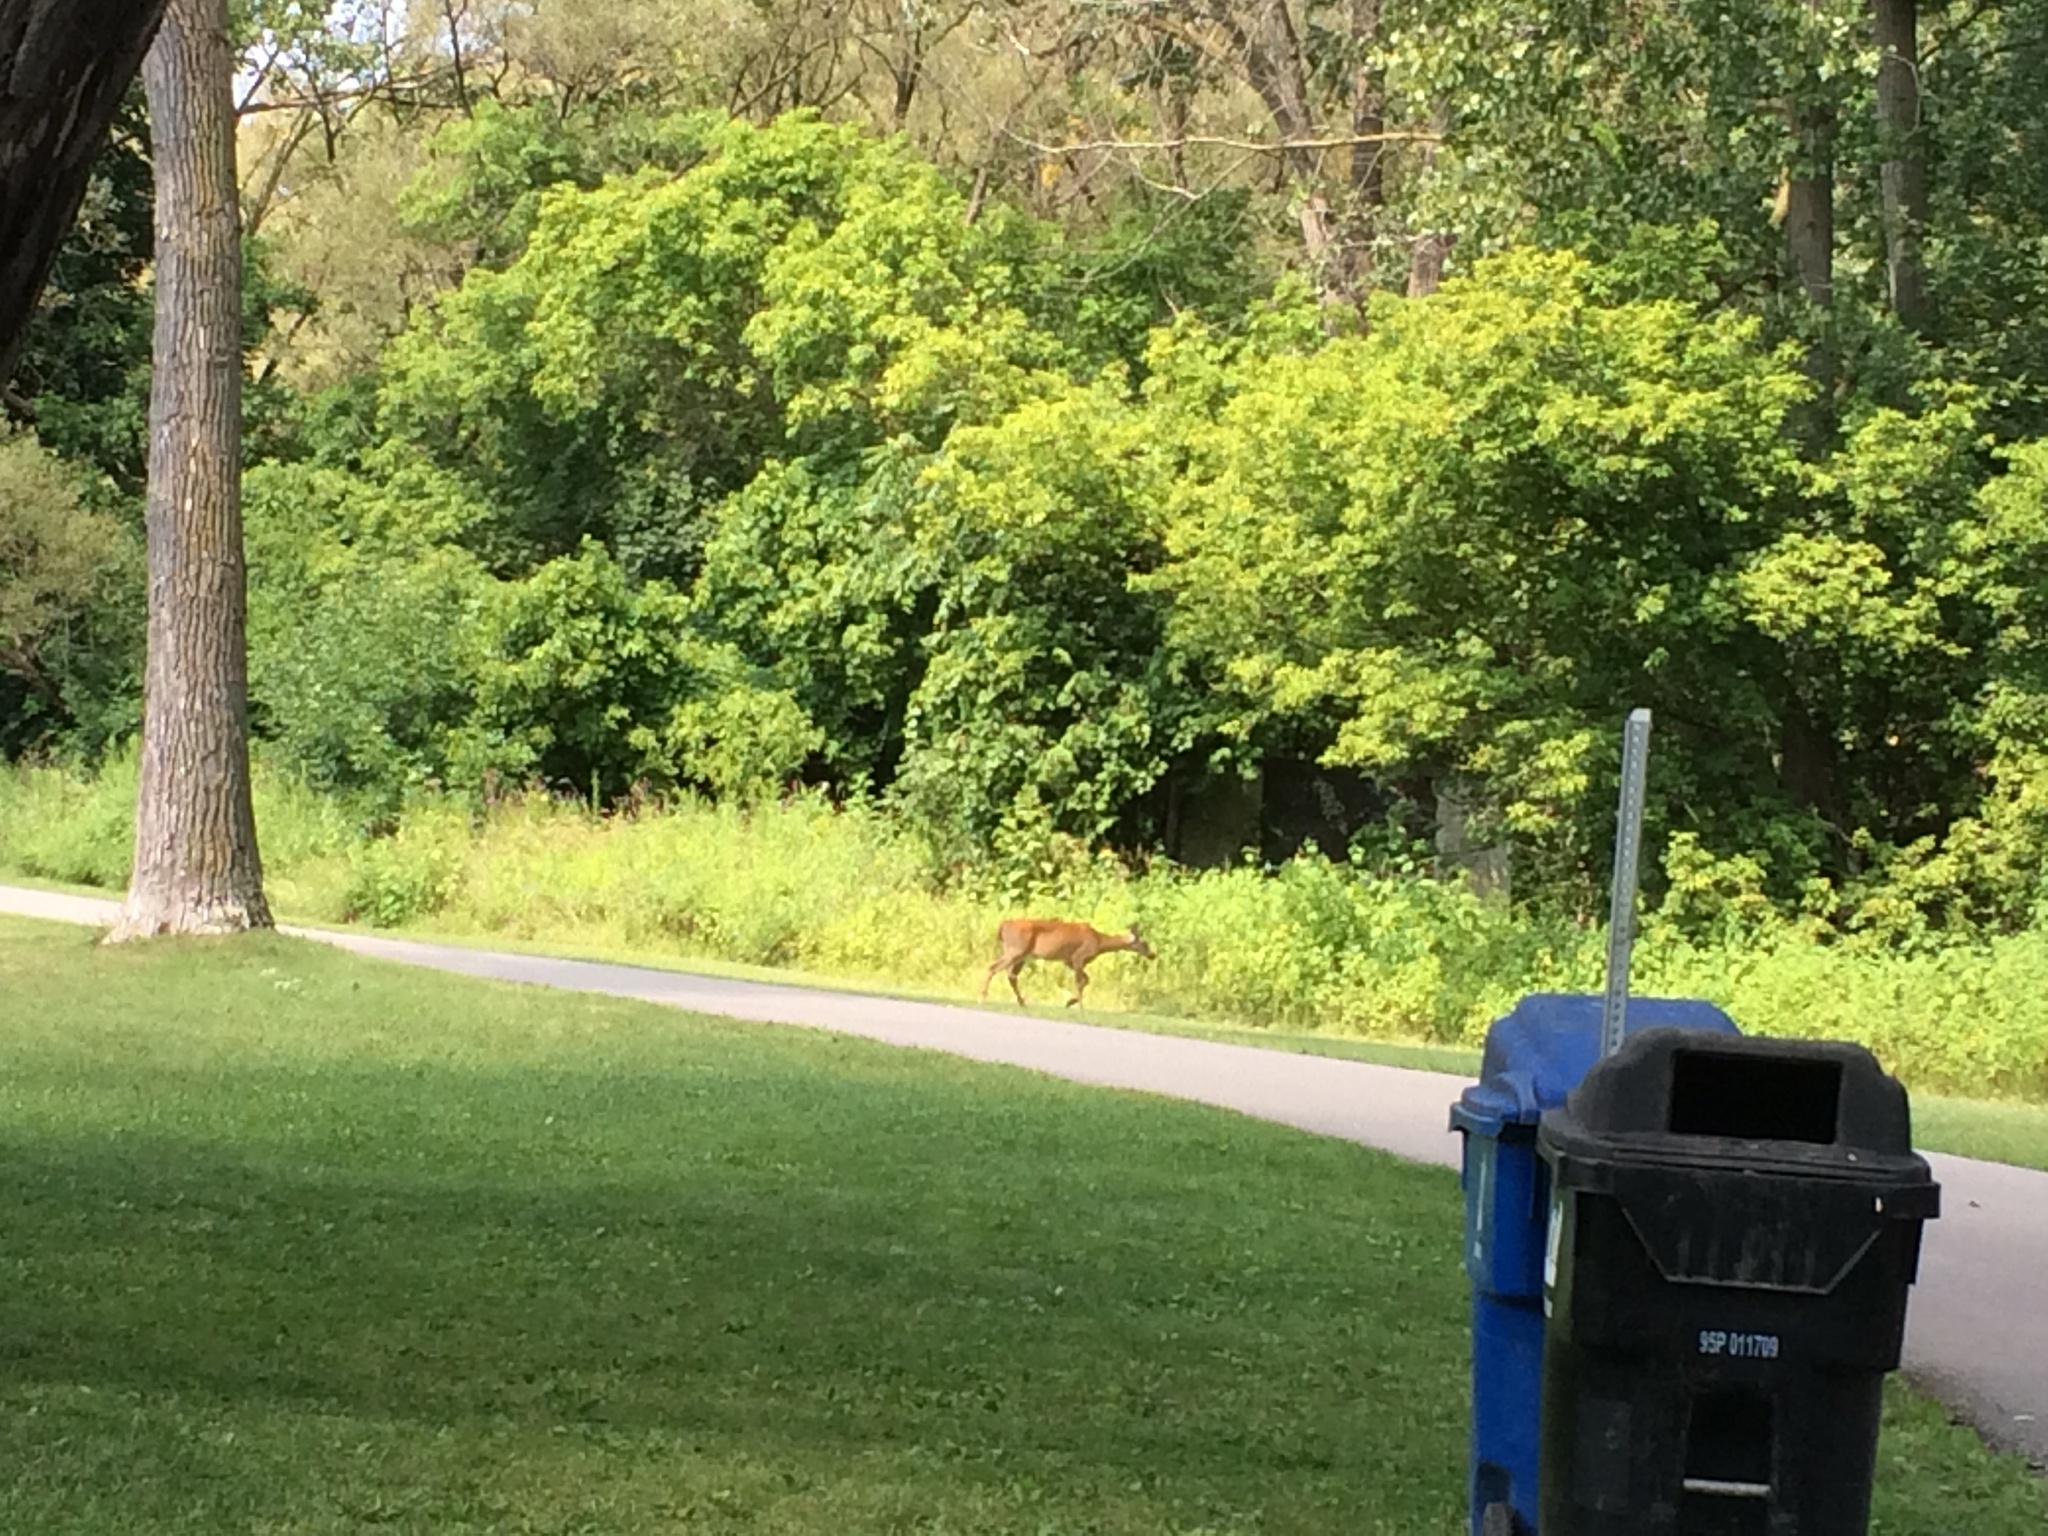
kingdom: Animalia
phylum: Chordata
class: Mammalia
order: Artiodactyla
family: Cervidae
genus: Odocoileus
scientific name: Odocoileus virginianus
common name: White-tailed deer
